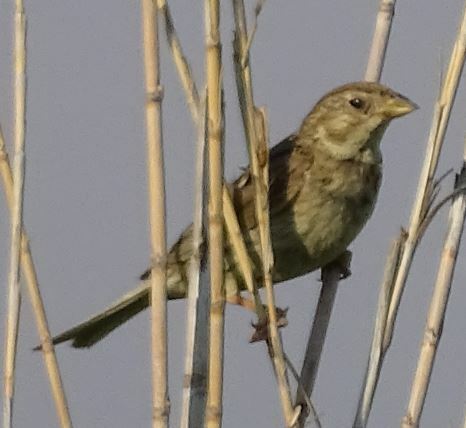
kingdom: Animalia
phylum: Chordata
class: Aves
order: Passeriformes
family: Emberizidae
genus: Emberiza
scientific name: Emberiza calandra
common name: Corn bunting
